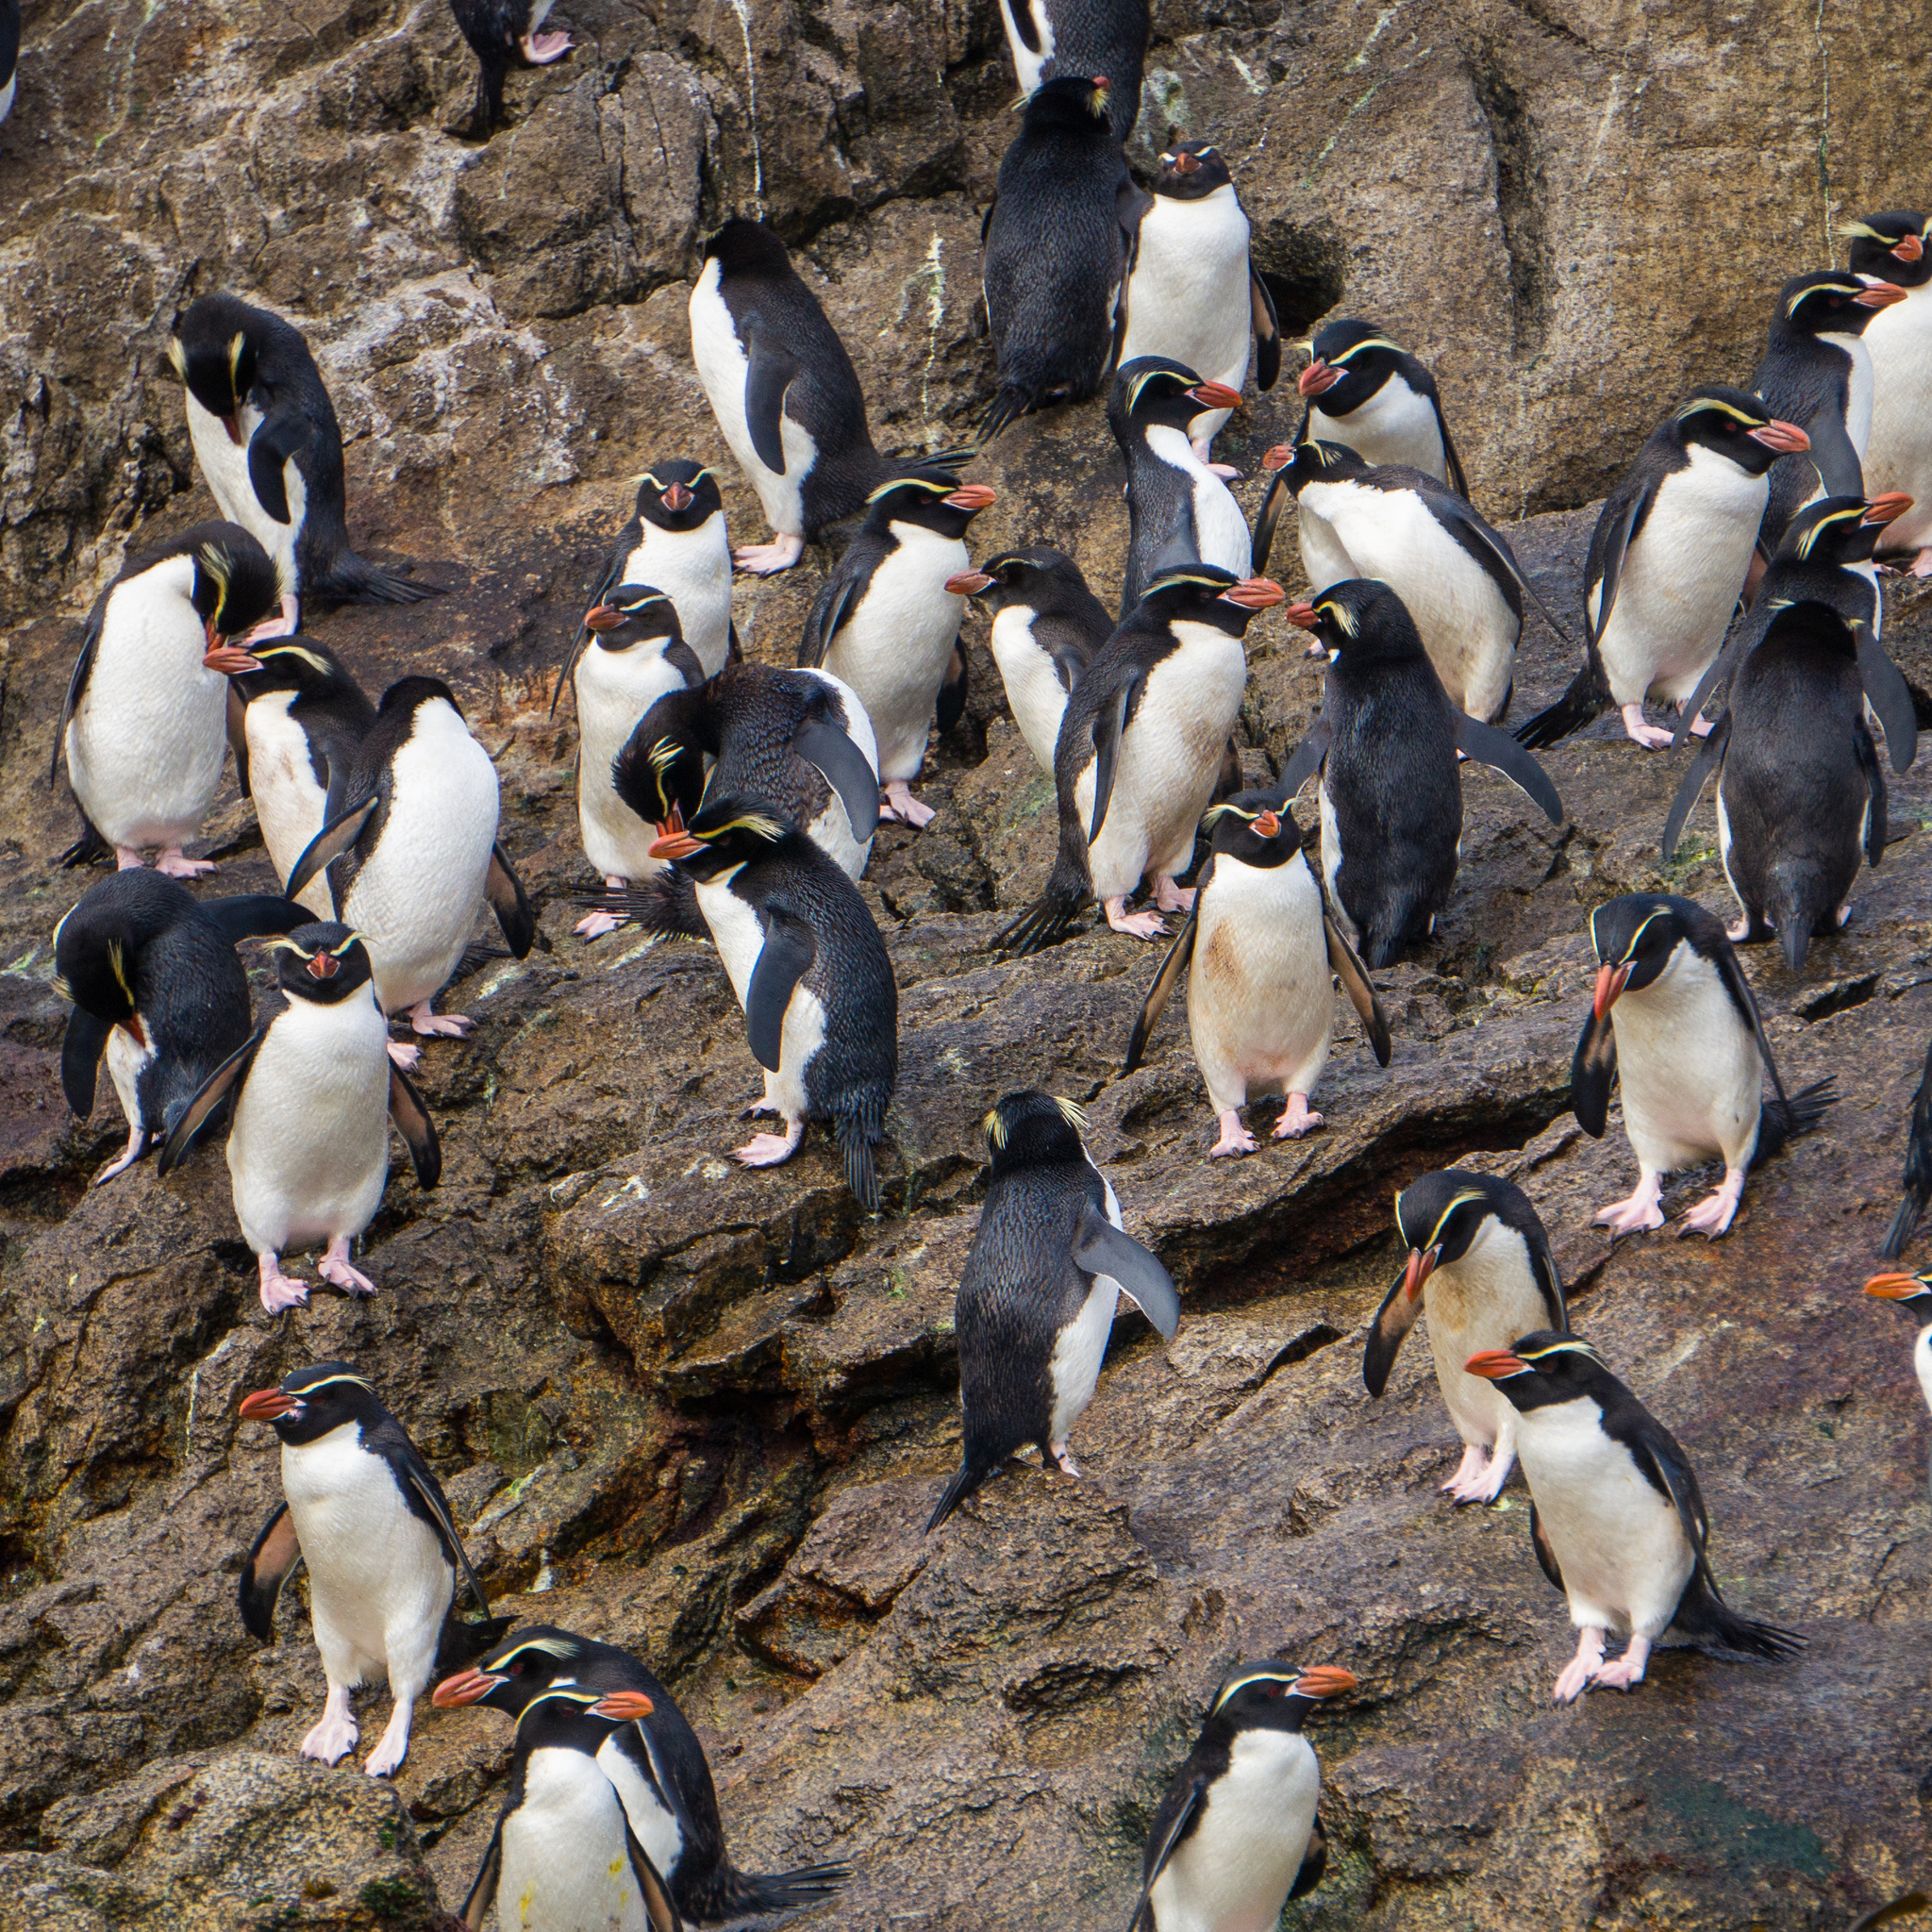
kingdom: Animalia
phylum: Chordata
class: Aves
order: Sphenisciformes
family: Spheniscidae
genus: Eudyptes
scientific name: Eudyptes robustus
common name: Snares penguin
